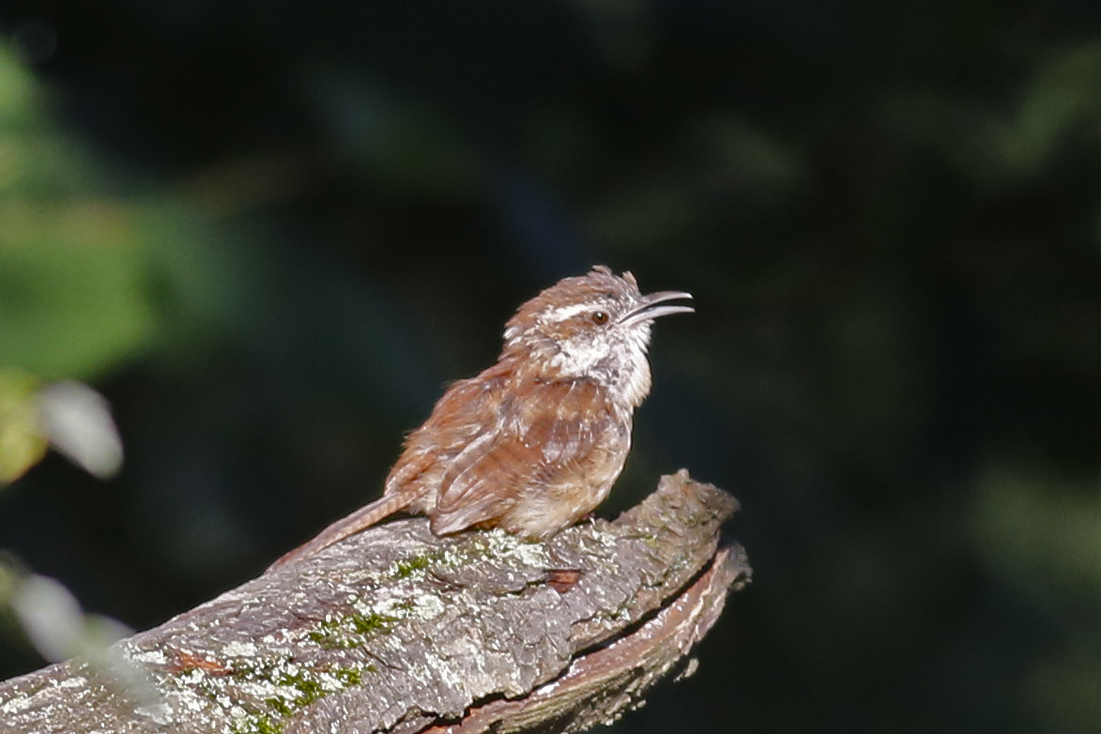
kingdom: Animalia
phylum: Chordata
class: Aves
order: Passeriformes
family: Troglodytidae
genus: Thryothorus
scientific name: Thryothorus ludovicianus
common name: Carolina wren
